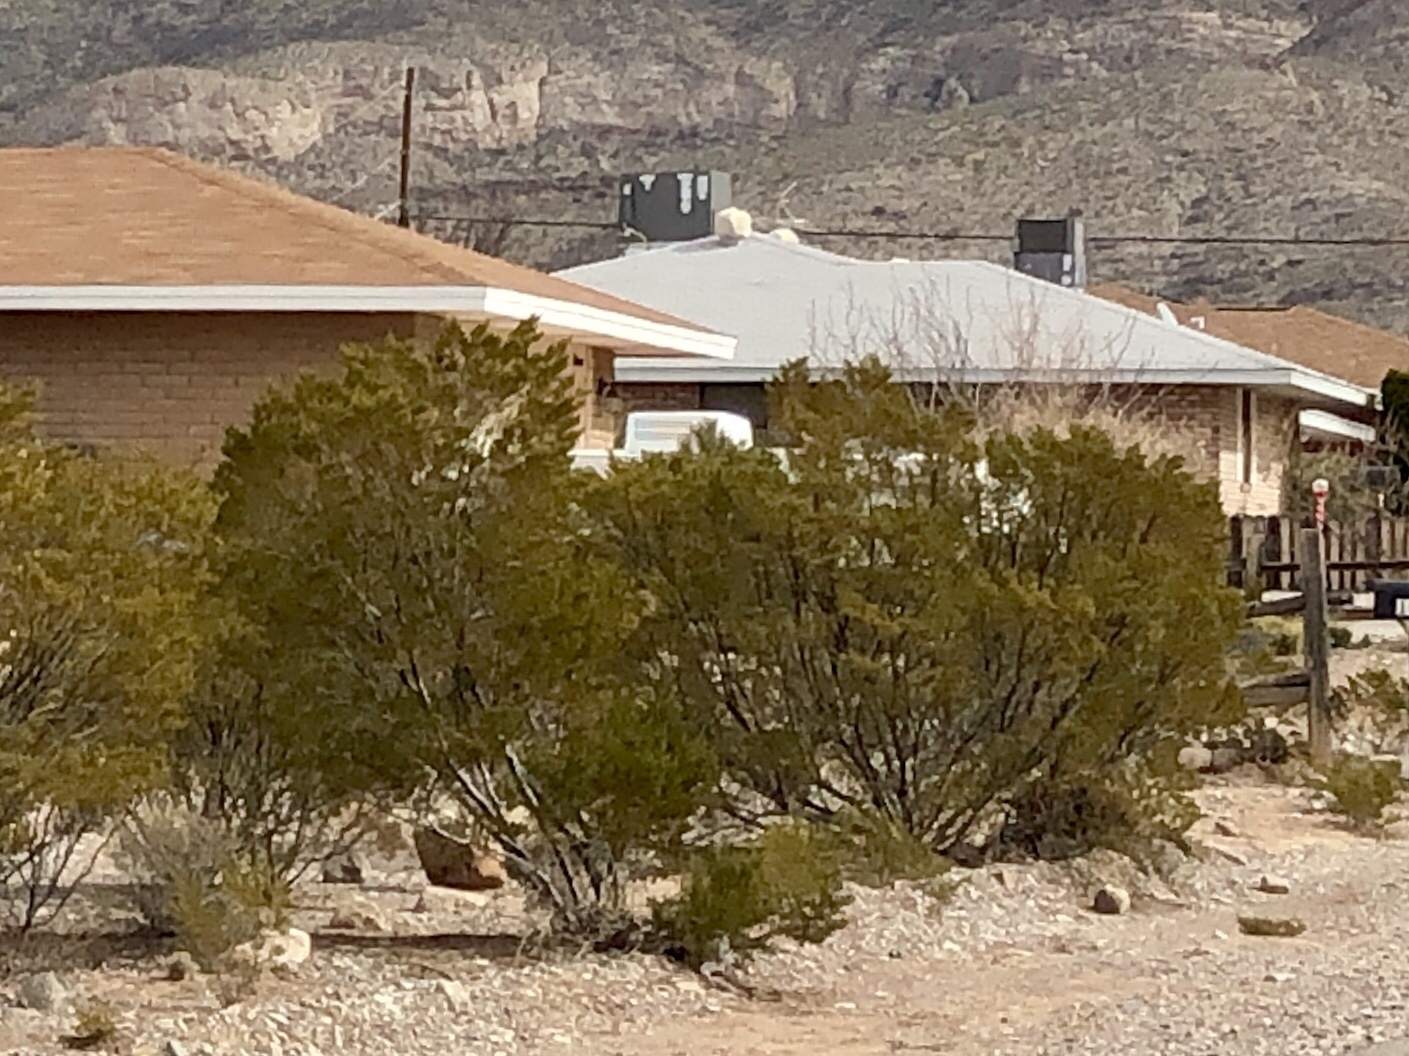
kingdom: Plantae
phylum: Tracheophyta
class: Magnoliopsida
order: Zygophyllales
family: Zygophyllaceae
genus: Larrea
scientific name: Larrea tridentata
